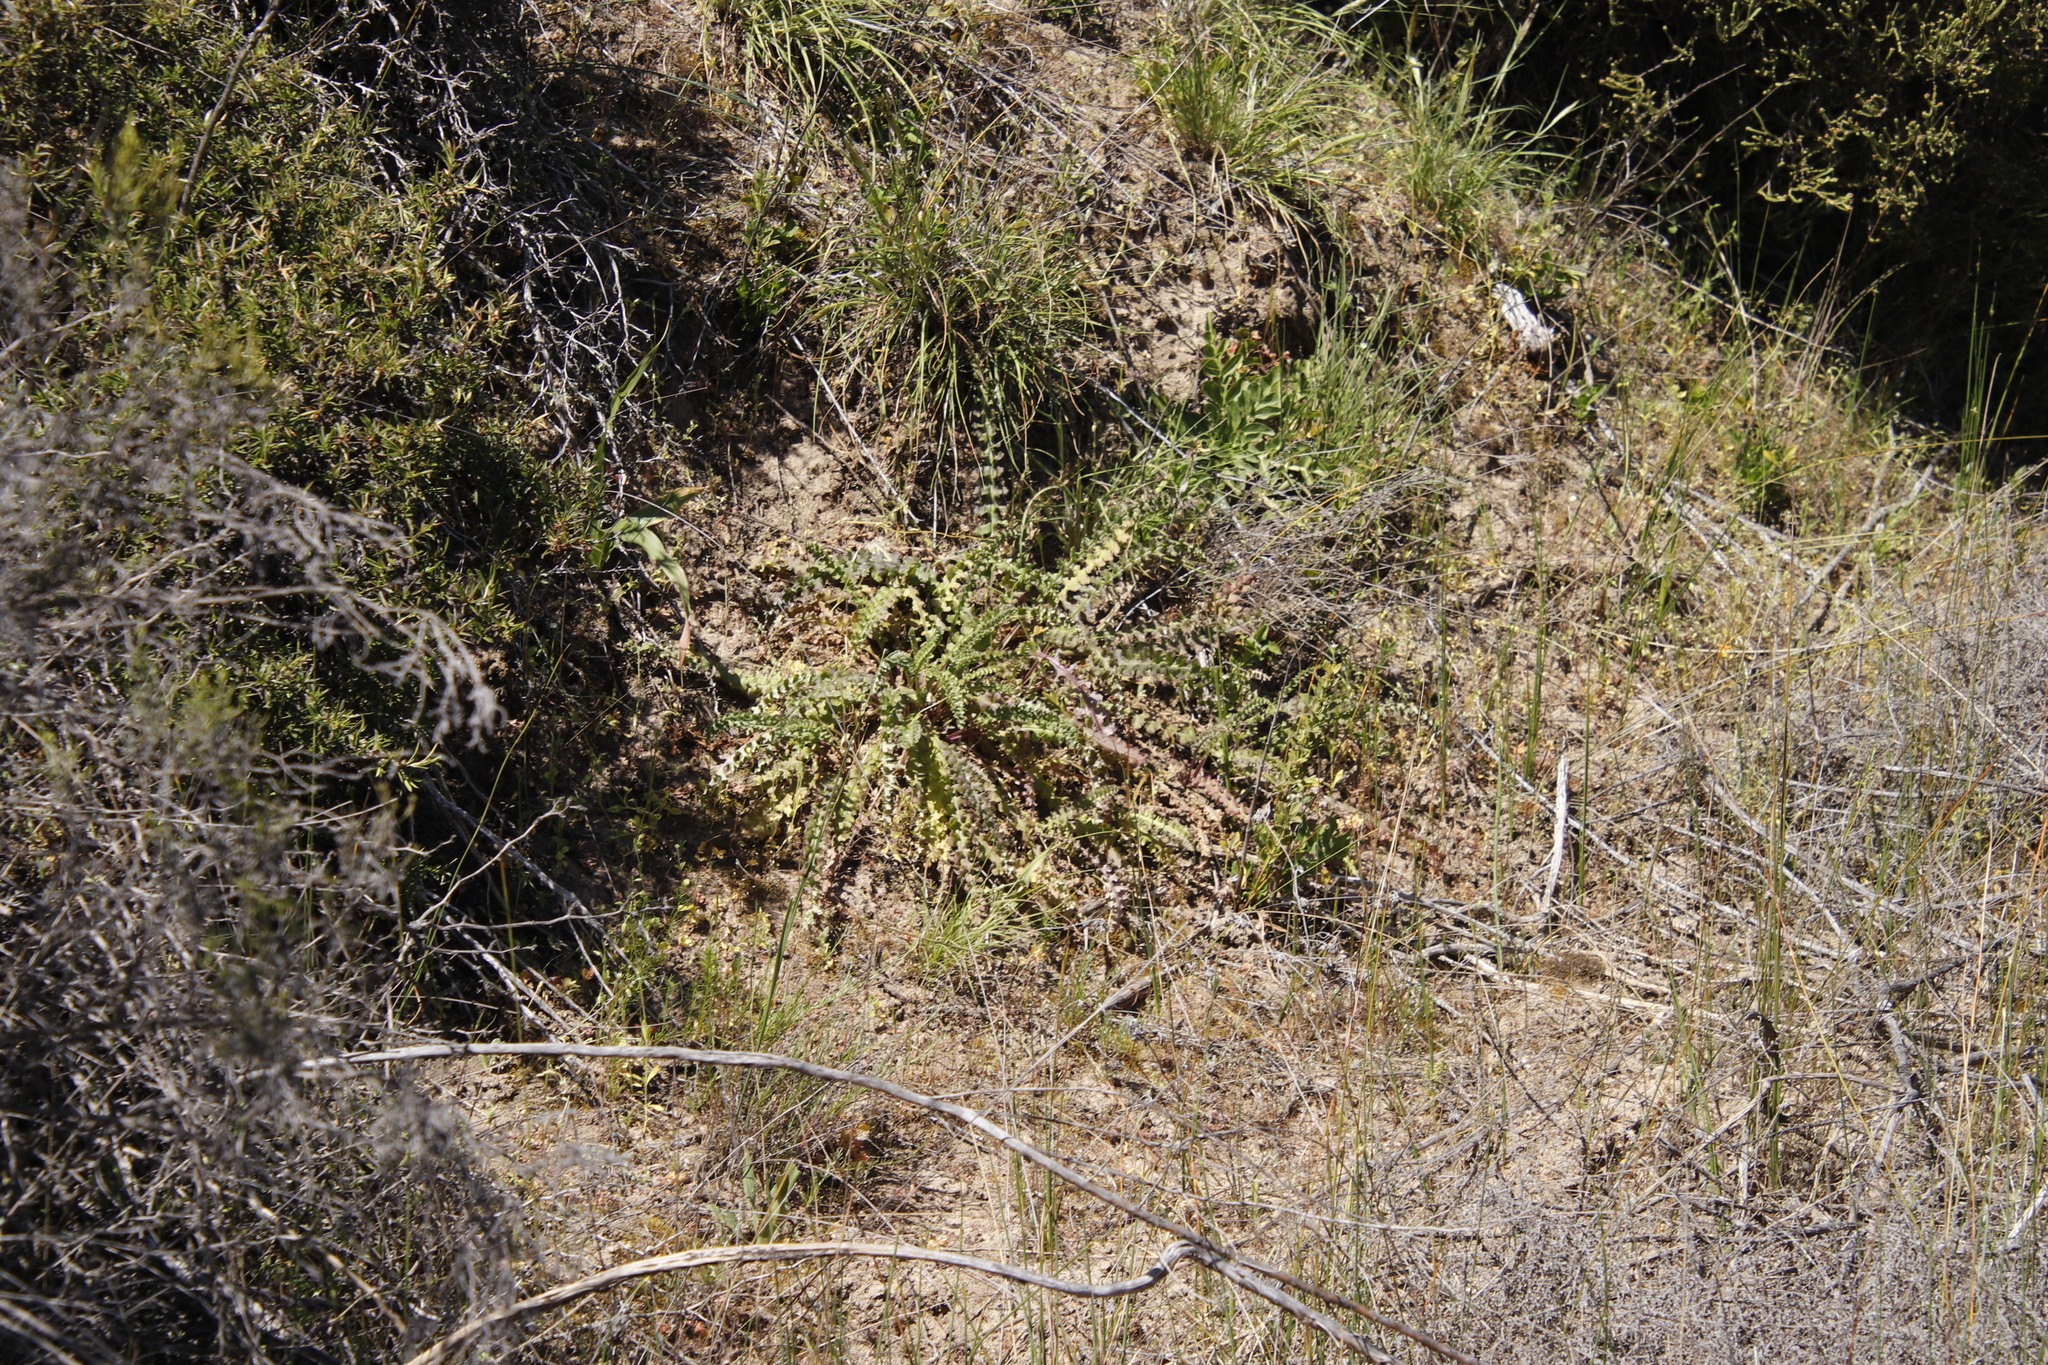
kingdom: Plantae
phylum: Tracheophyta
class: Magnoliopsida
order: Asterales
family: Asteraceae
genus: Senecio
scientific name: Senecio spiraeifolius
